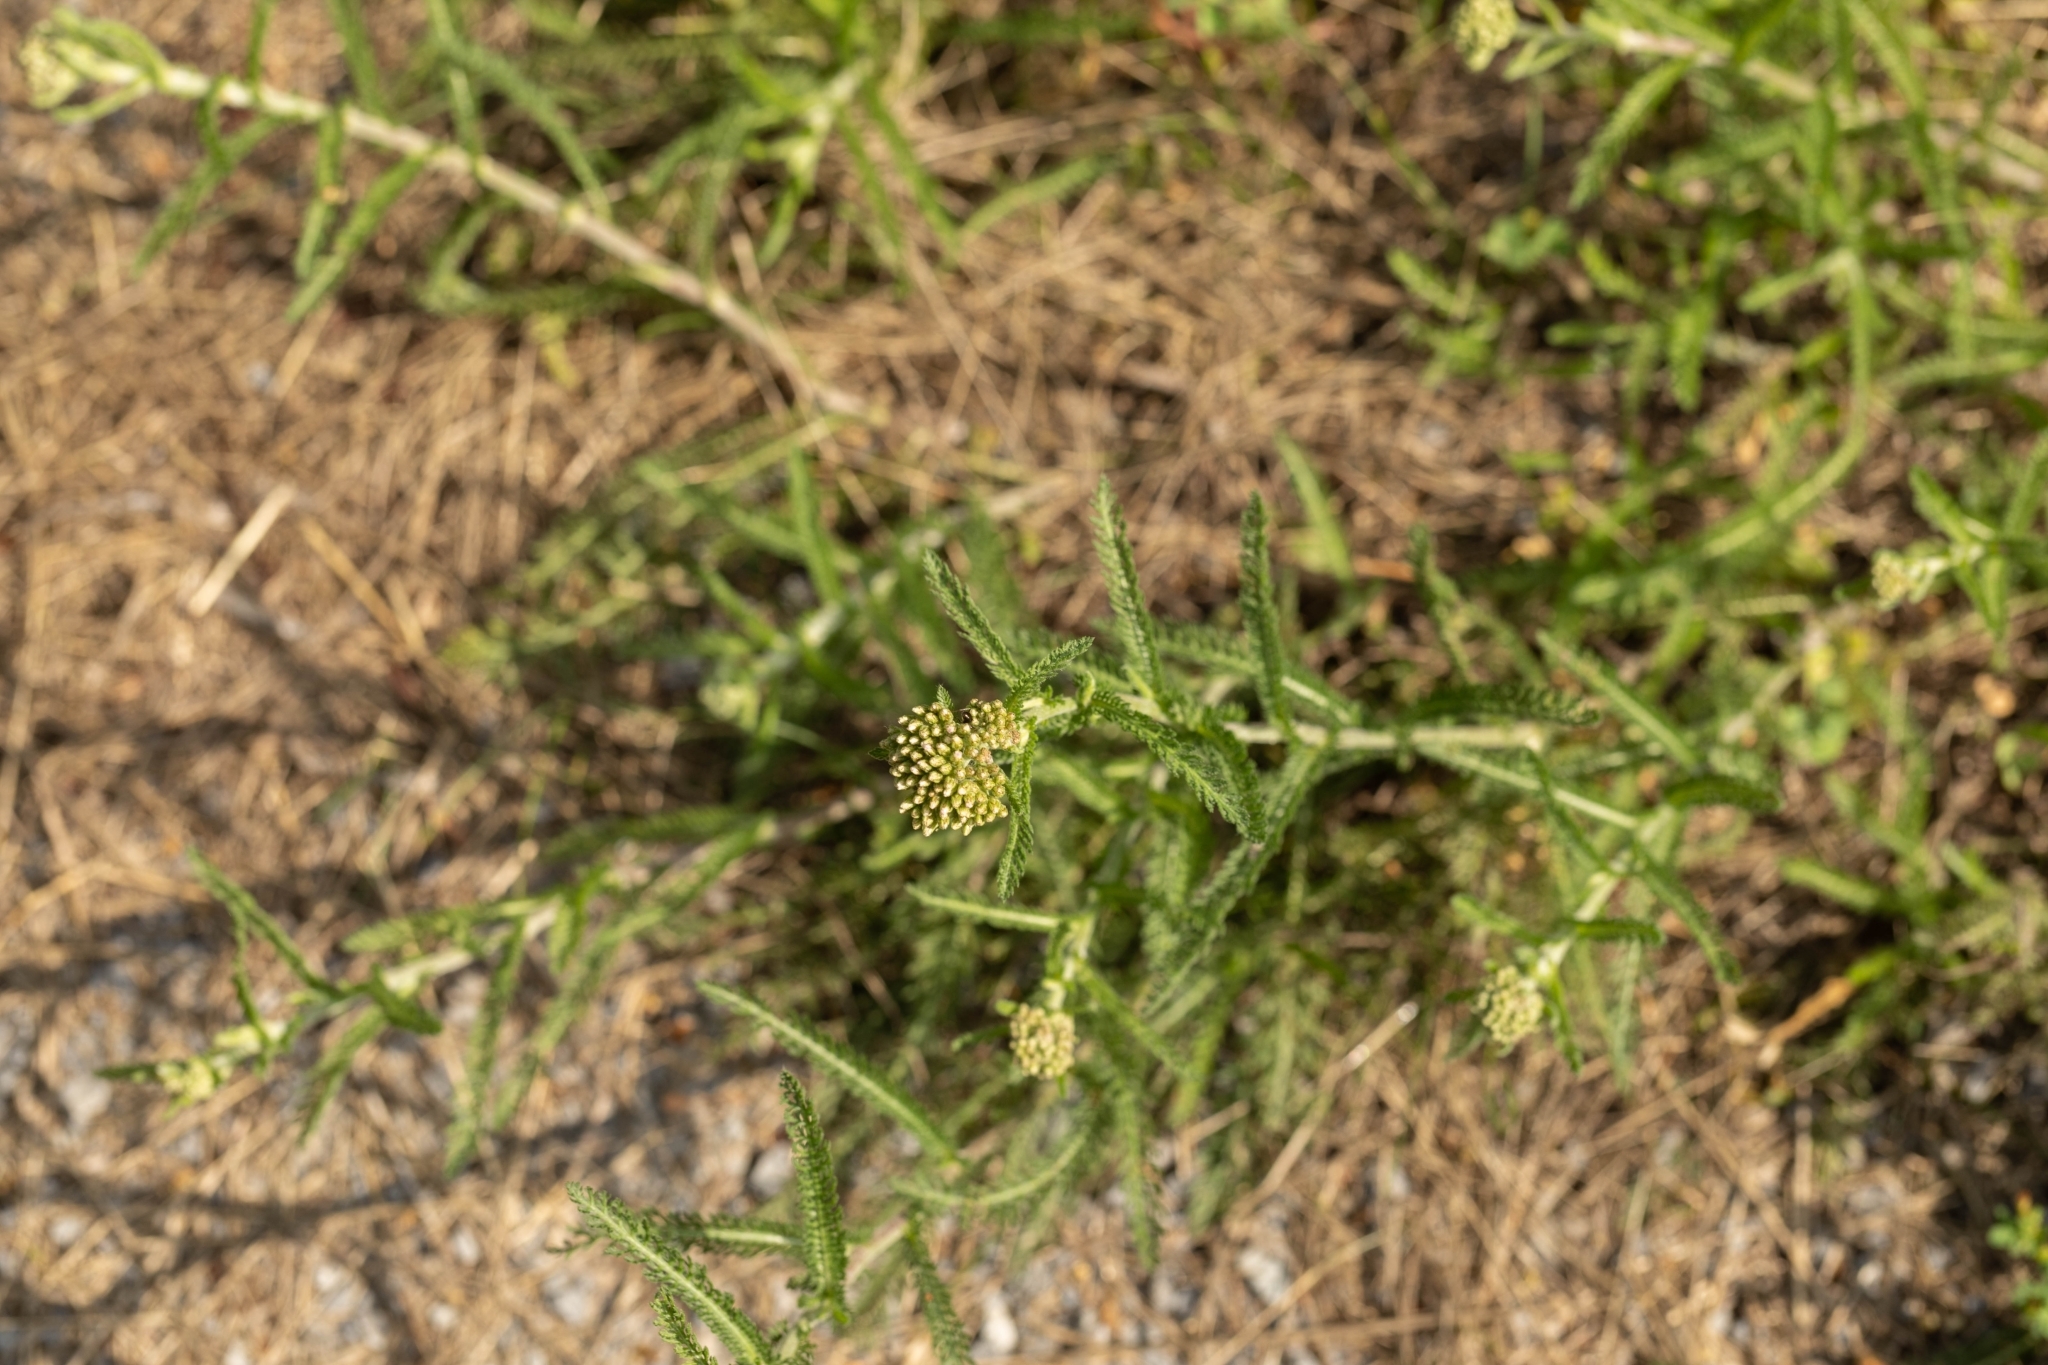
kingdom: Plantae
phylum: Tracheophyta
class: Magnoliopsida
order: Asterales
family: Asteraceae
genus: Achillea
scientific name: Achillea millefolium
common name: Yarrow
